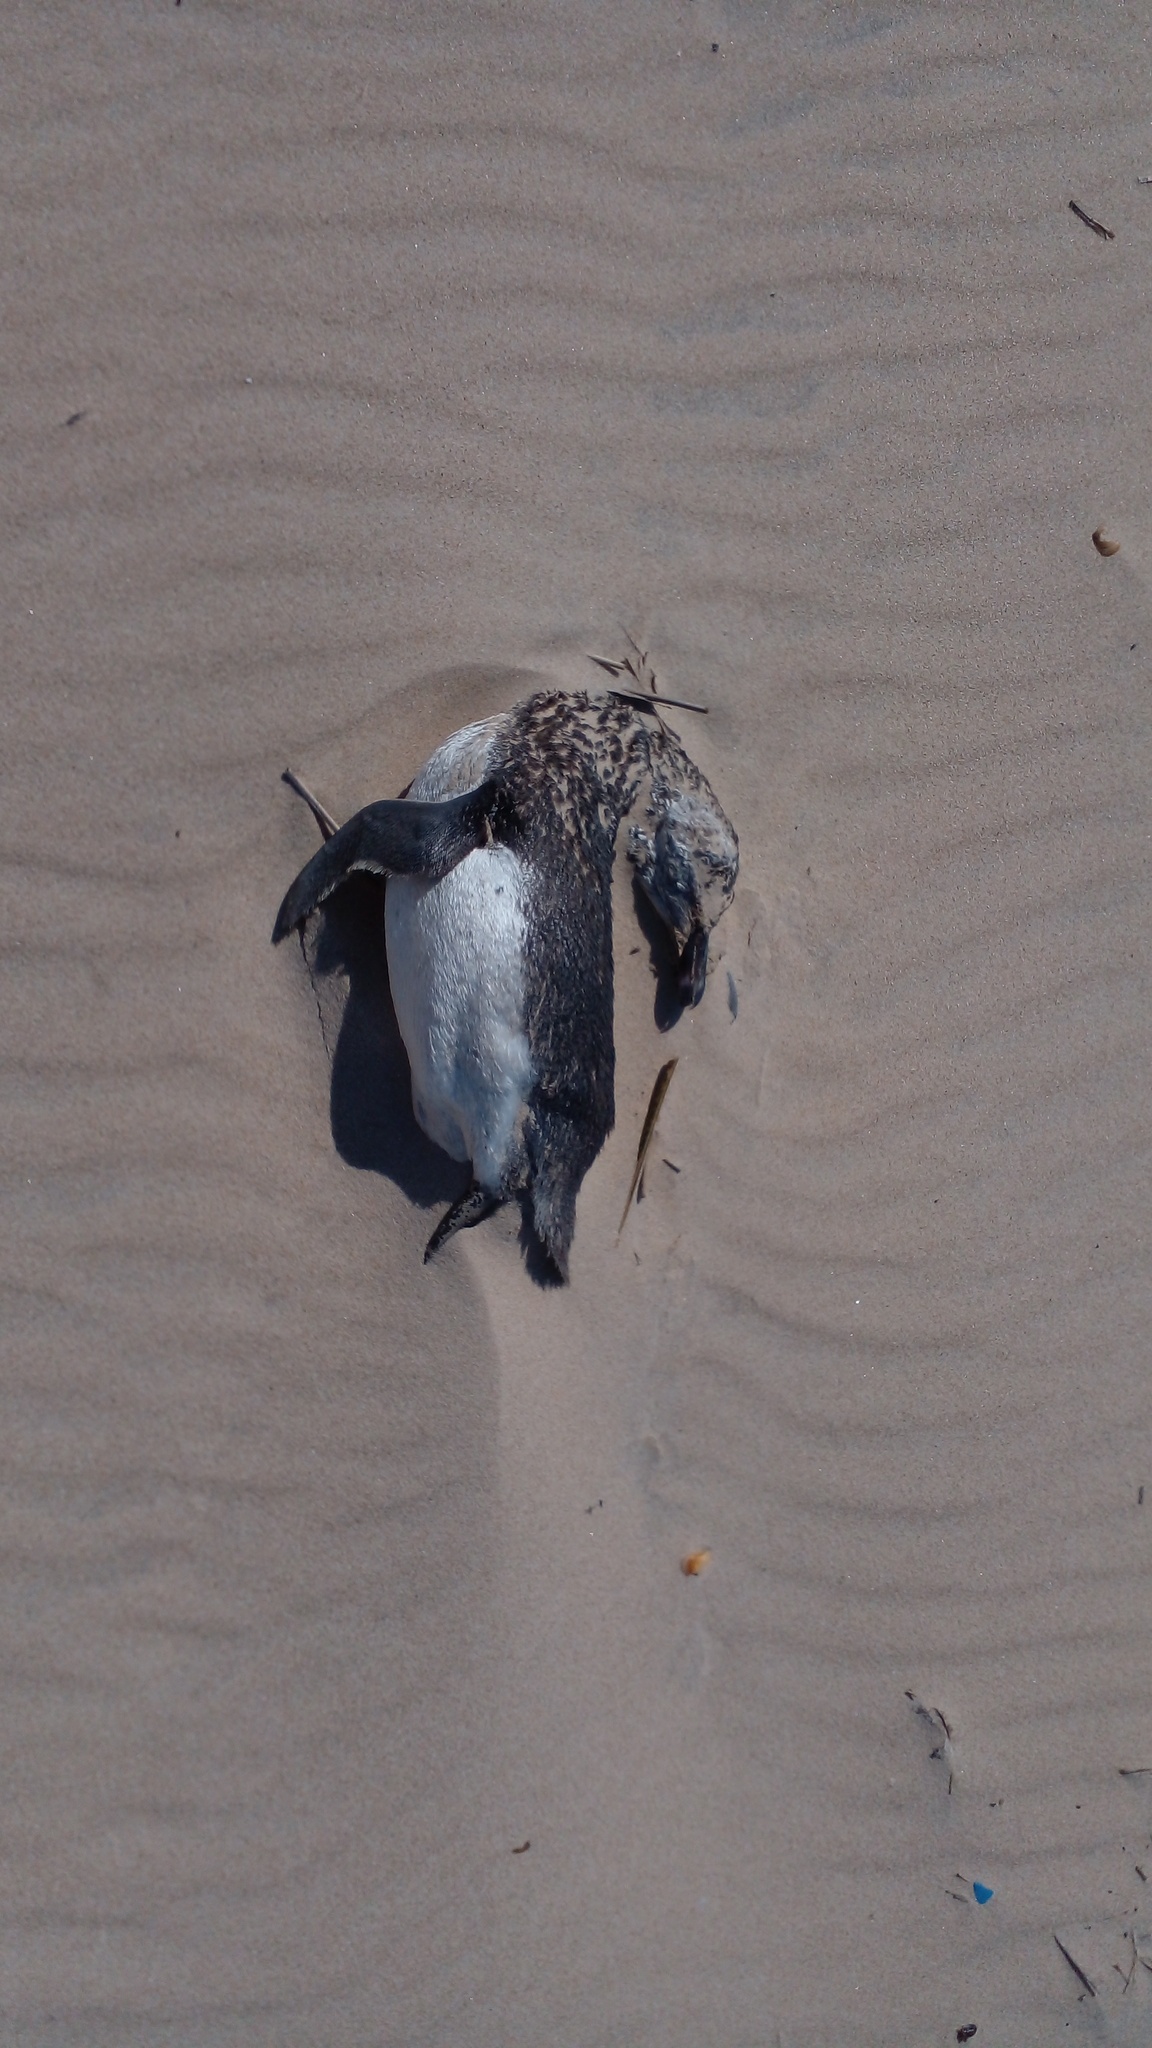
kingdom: Animalia
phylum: Chordata
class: Aves
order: Sphenisciformes
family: Spheniscidae
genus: Spheniscus
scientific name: Spheniscus magellanicus
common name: Magellanic penguin
